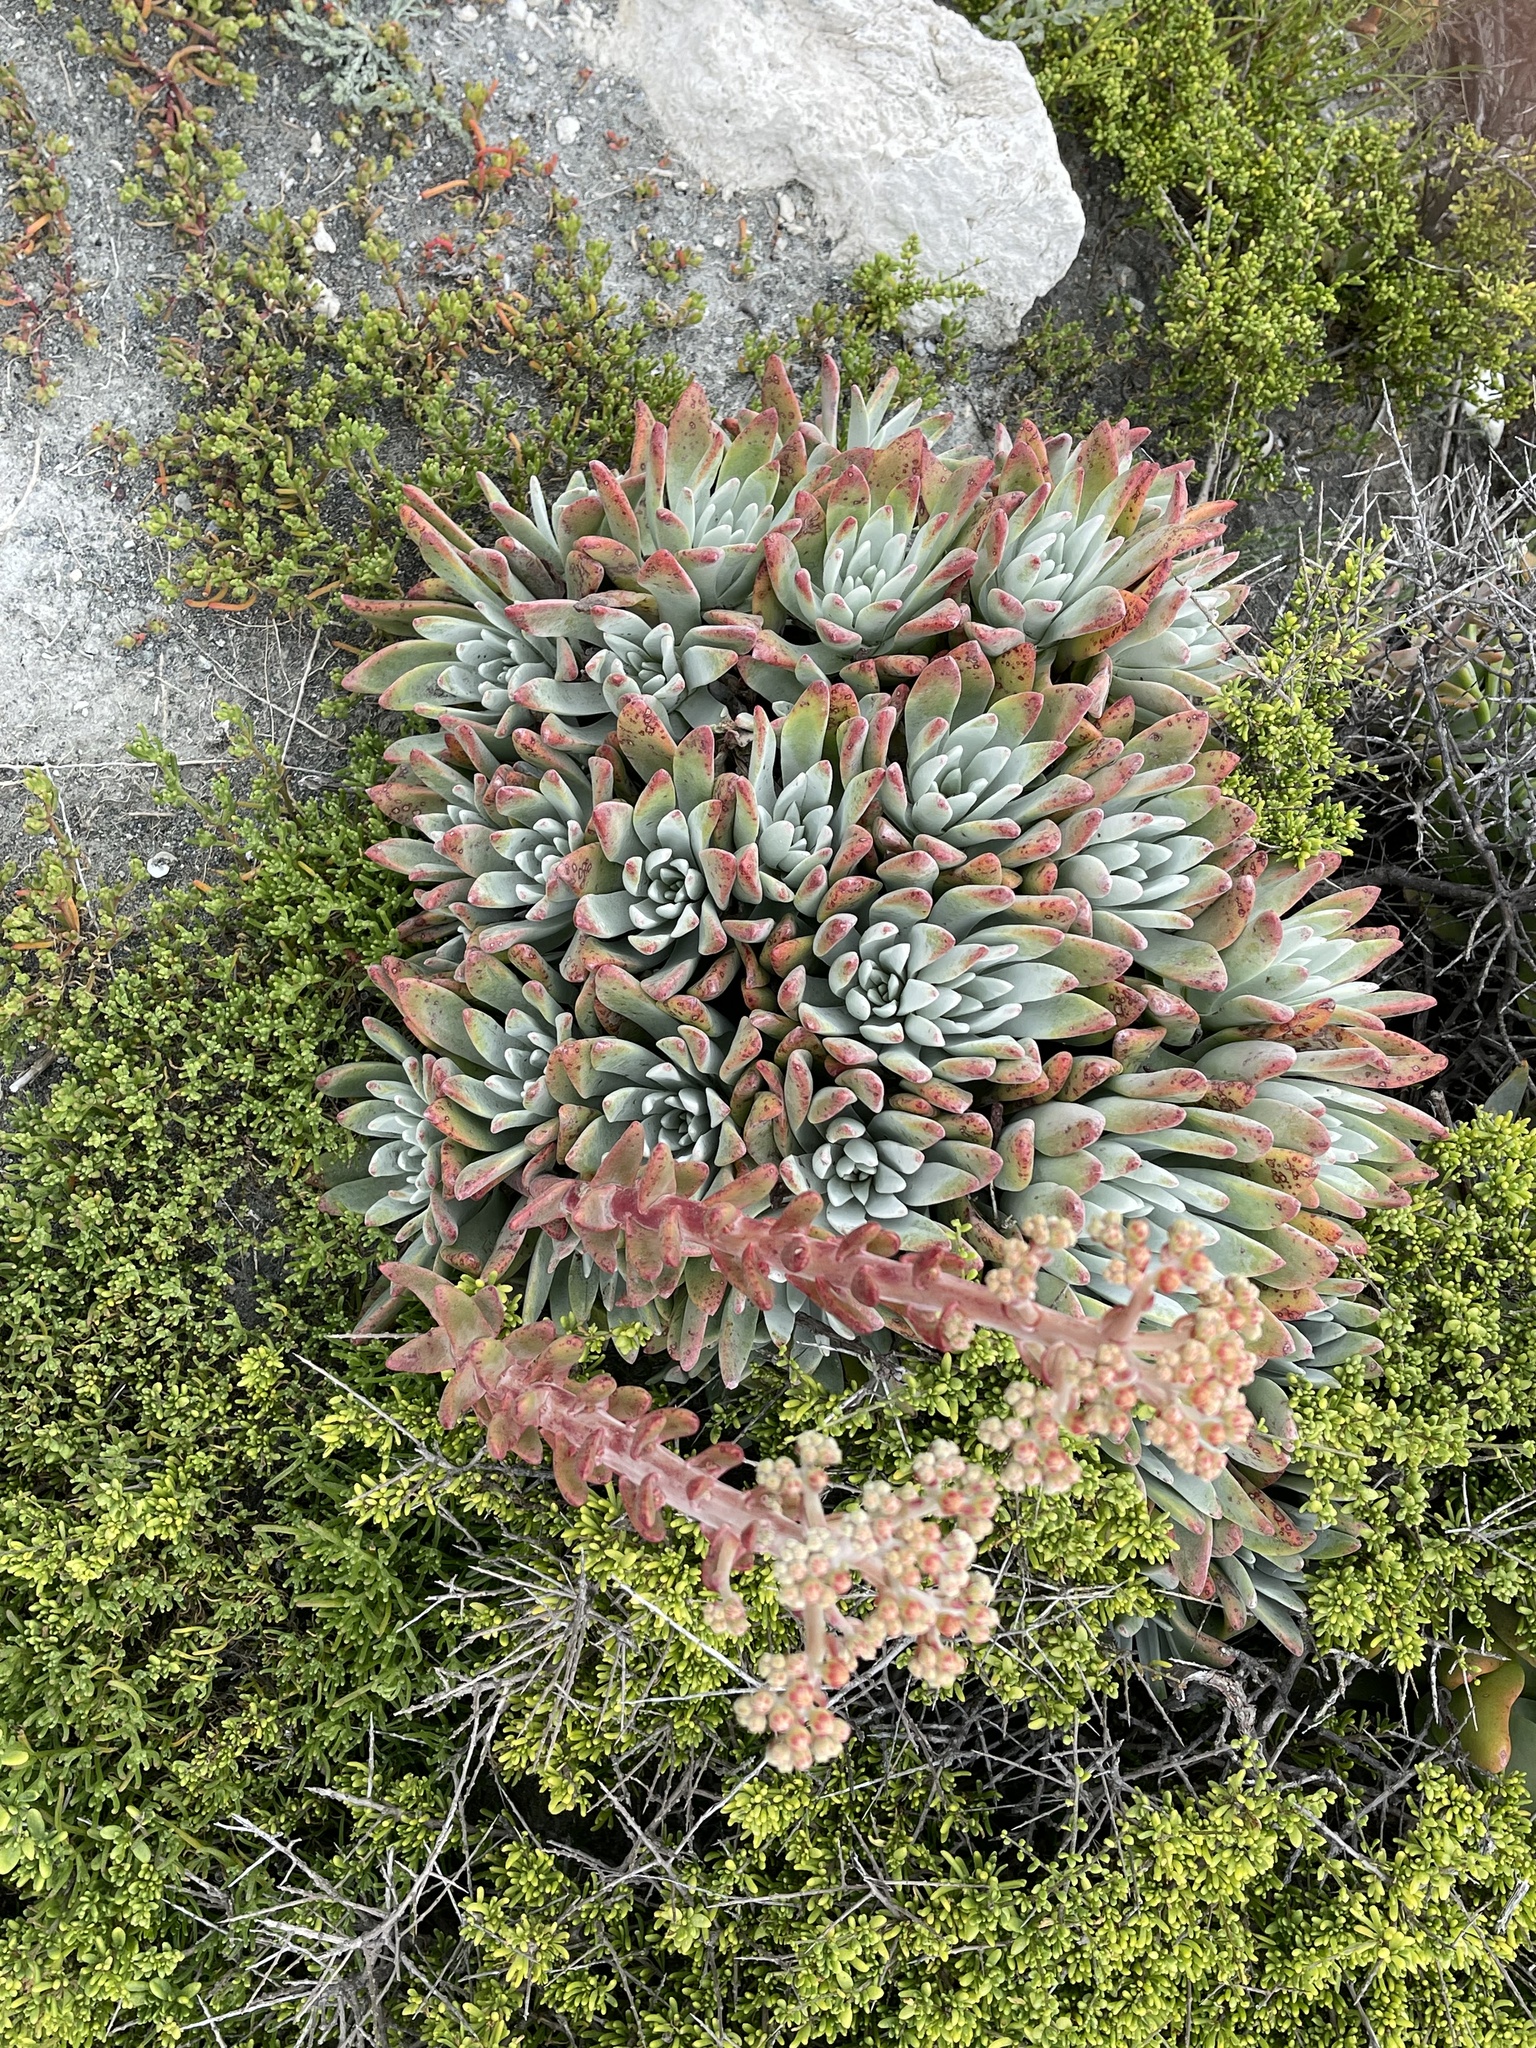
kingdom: Plantae
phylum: Tracheophyta
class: Magnoliopsida
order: Saxifragales
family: Crassulaceae
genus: Dudleya
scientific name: Dudleya virens
